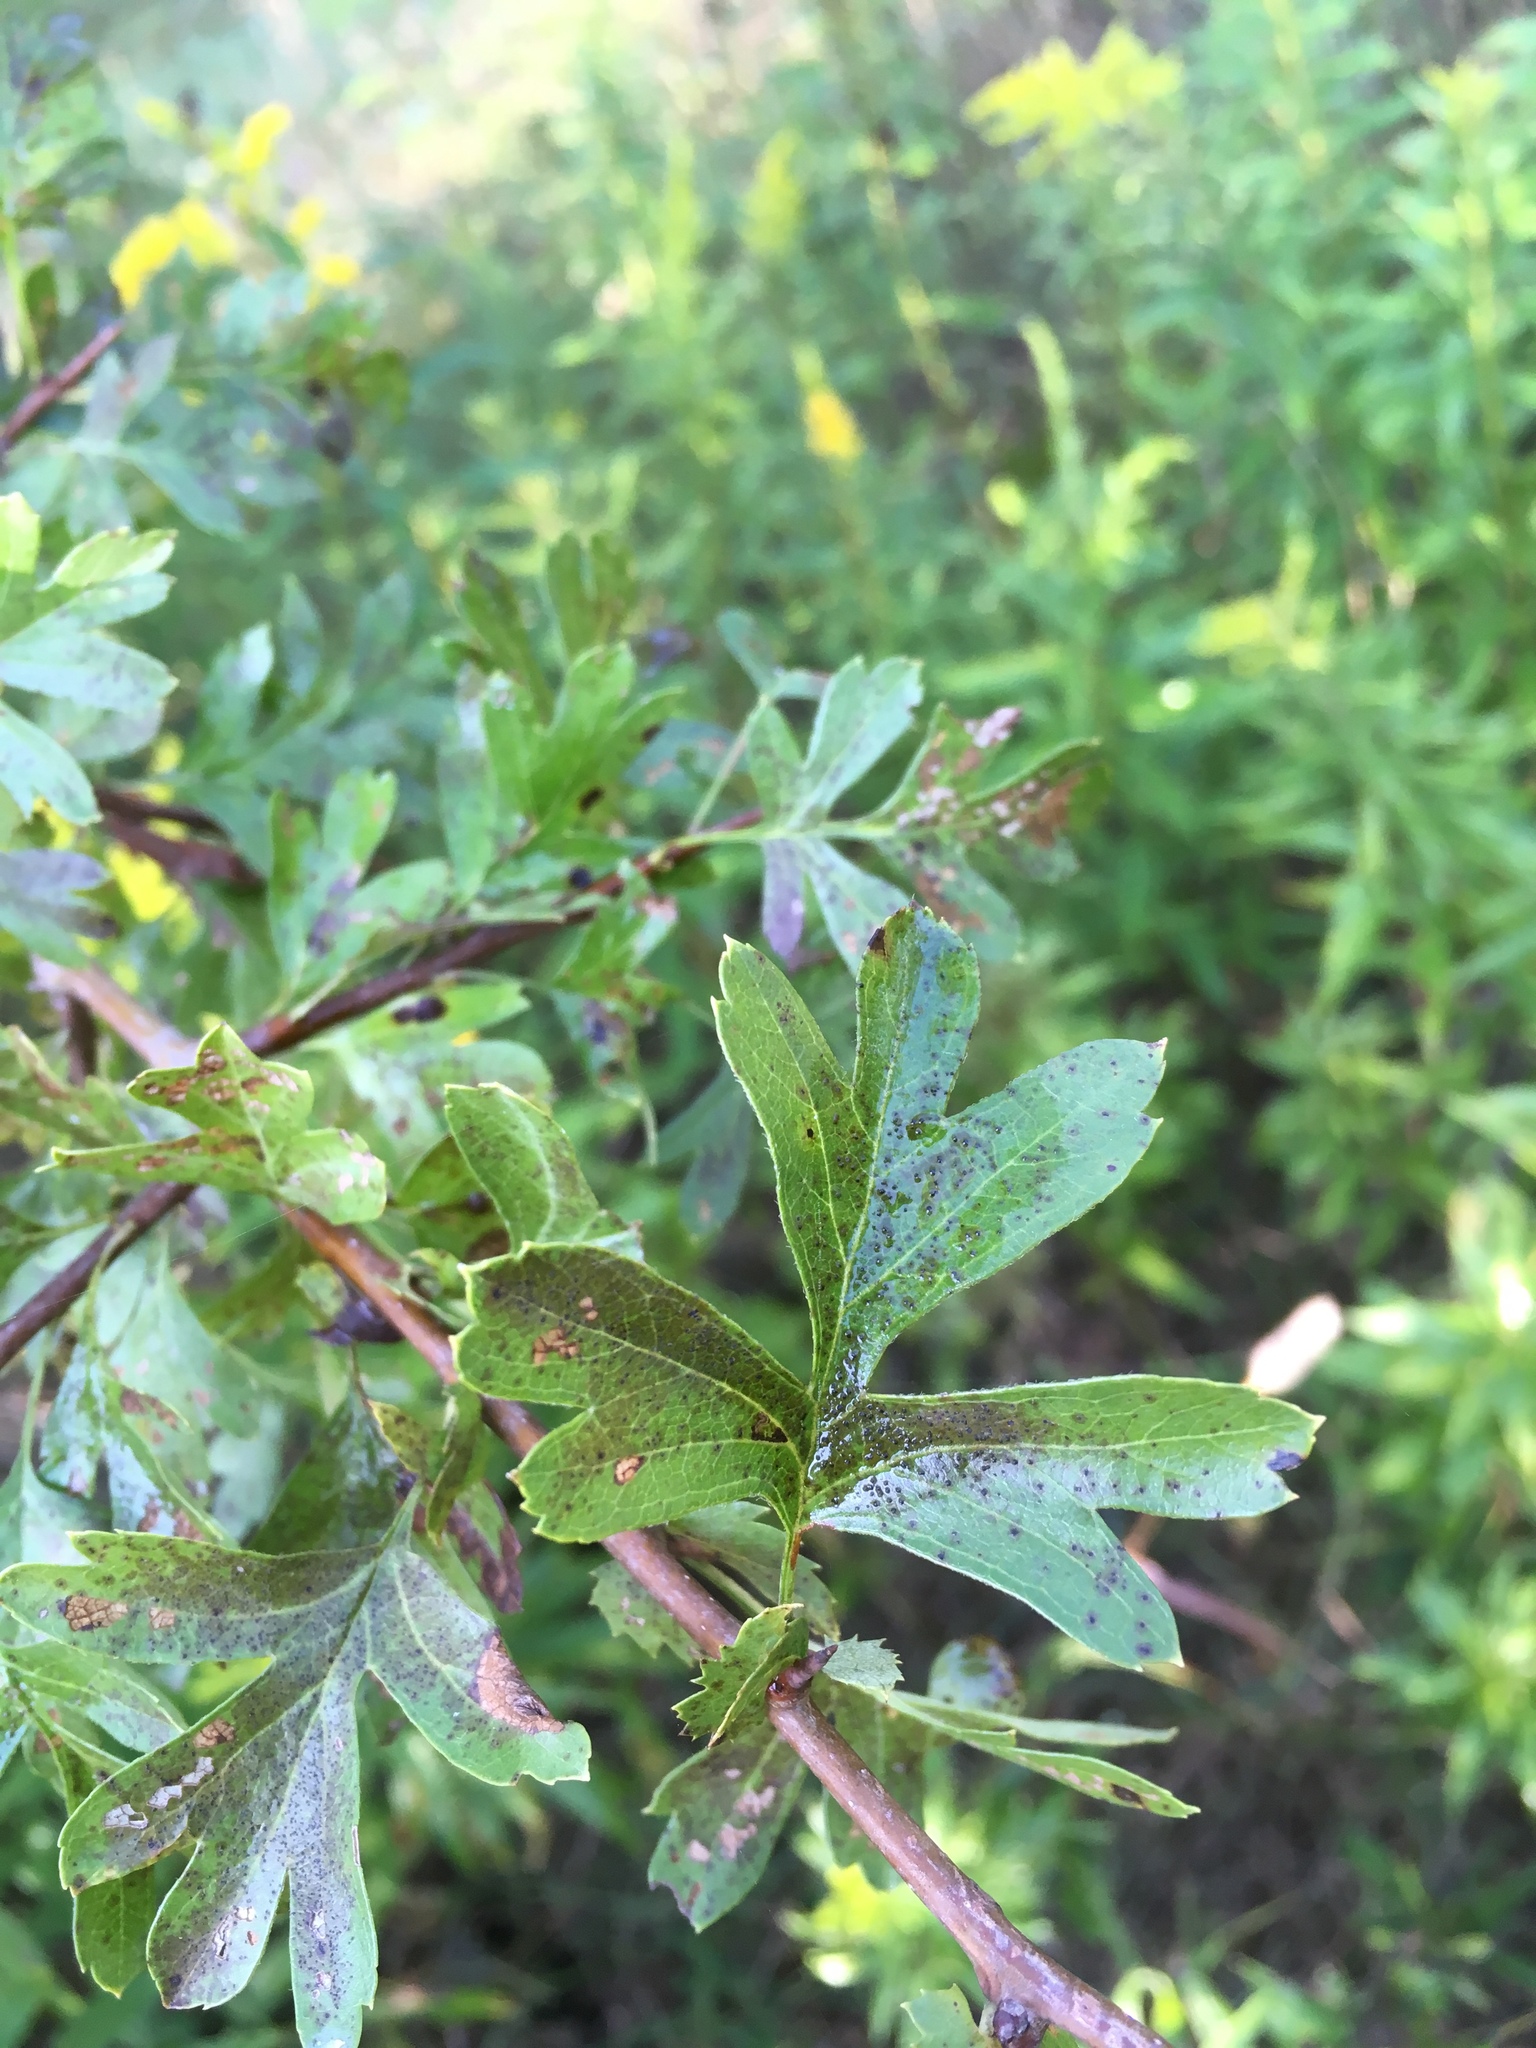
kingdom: Plantae
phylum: Tracheophyta
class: Magnoliopsida
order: Rosales
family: Rosaceae
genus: Crataegus
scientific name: Crataegus monogyna
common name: Hawthorn
